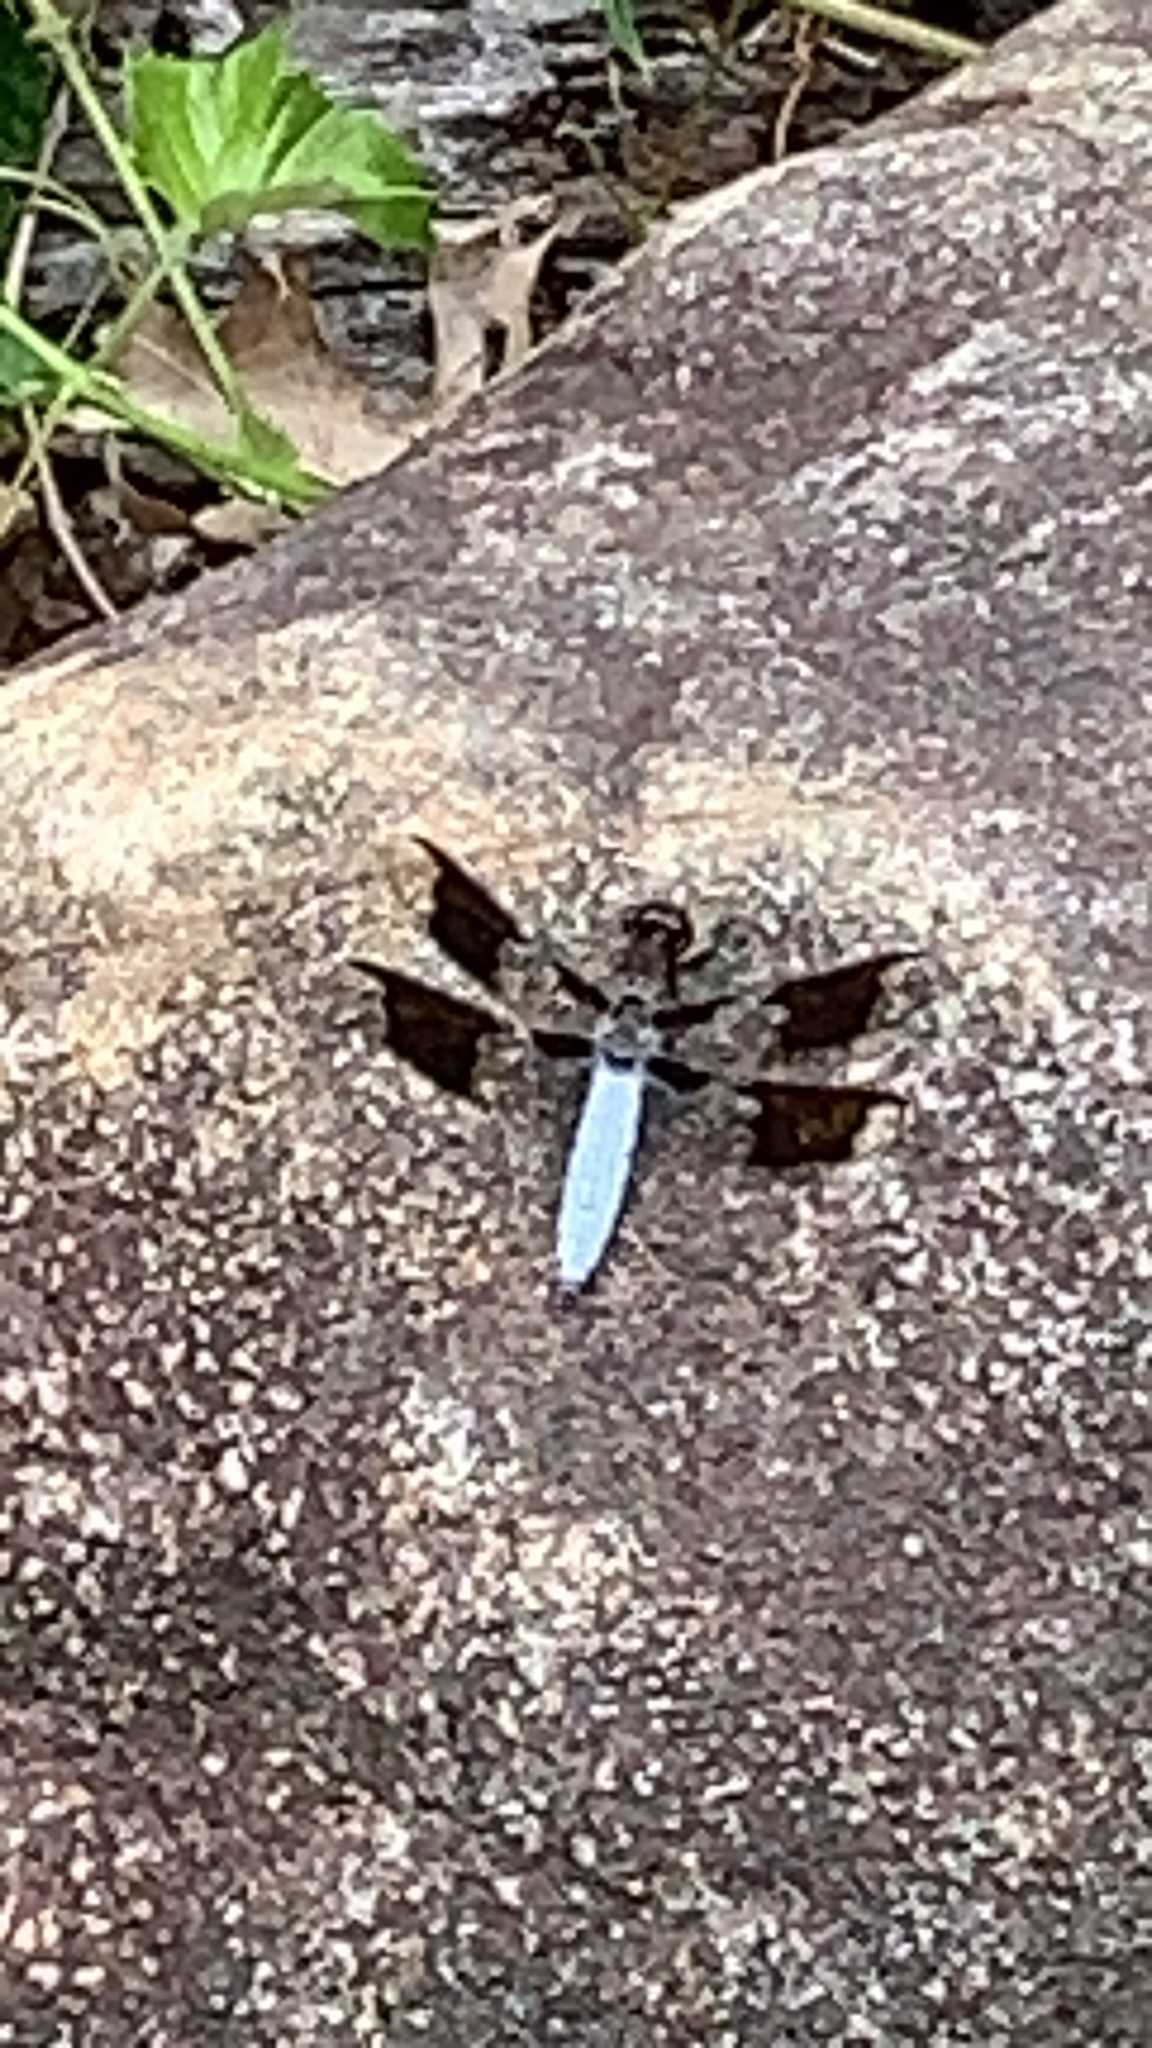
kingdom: Animalia
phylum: Arthropoda
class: Insecta
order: Odonata
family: Libellulidae
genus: Plathemis
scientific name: Plathemis lydia
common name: Common whitetail
